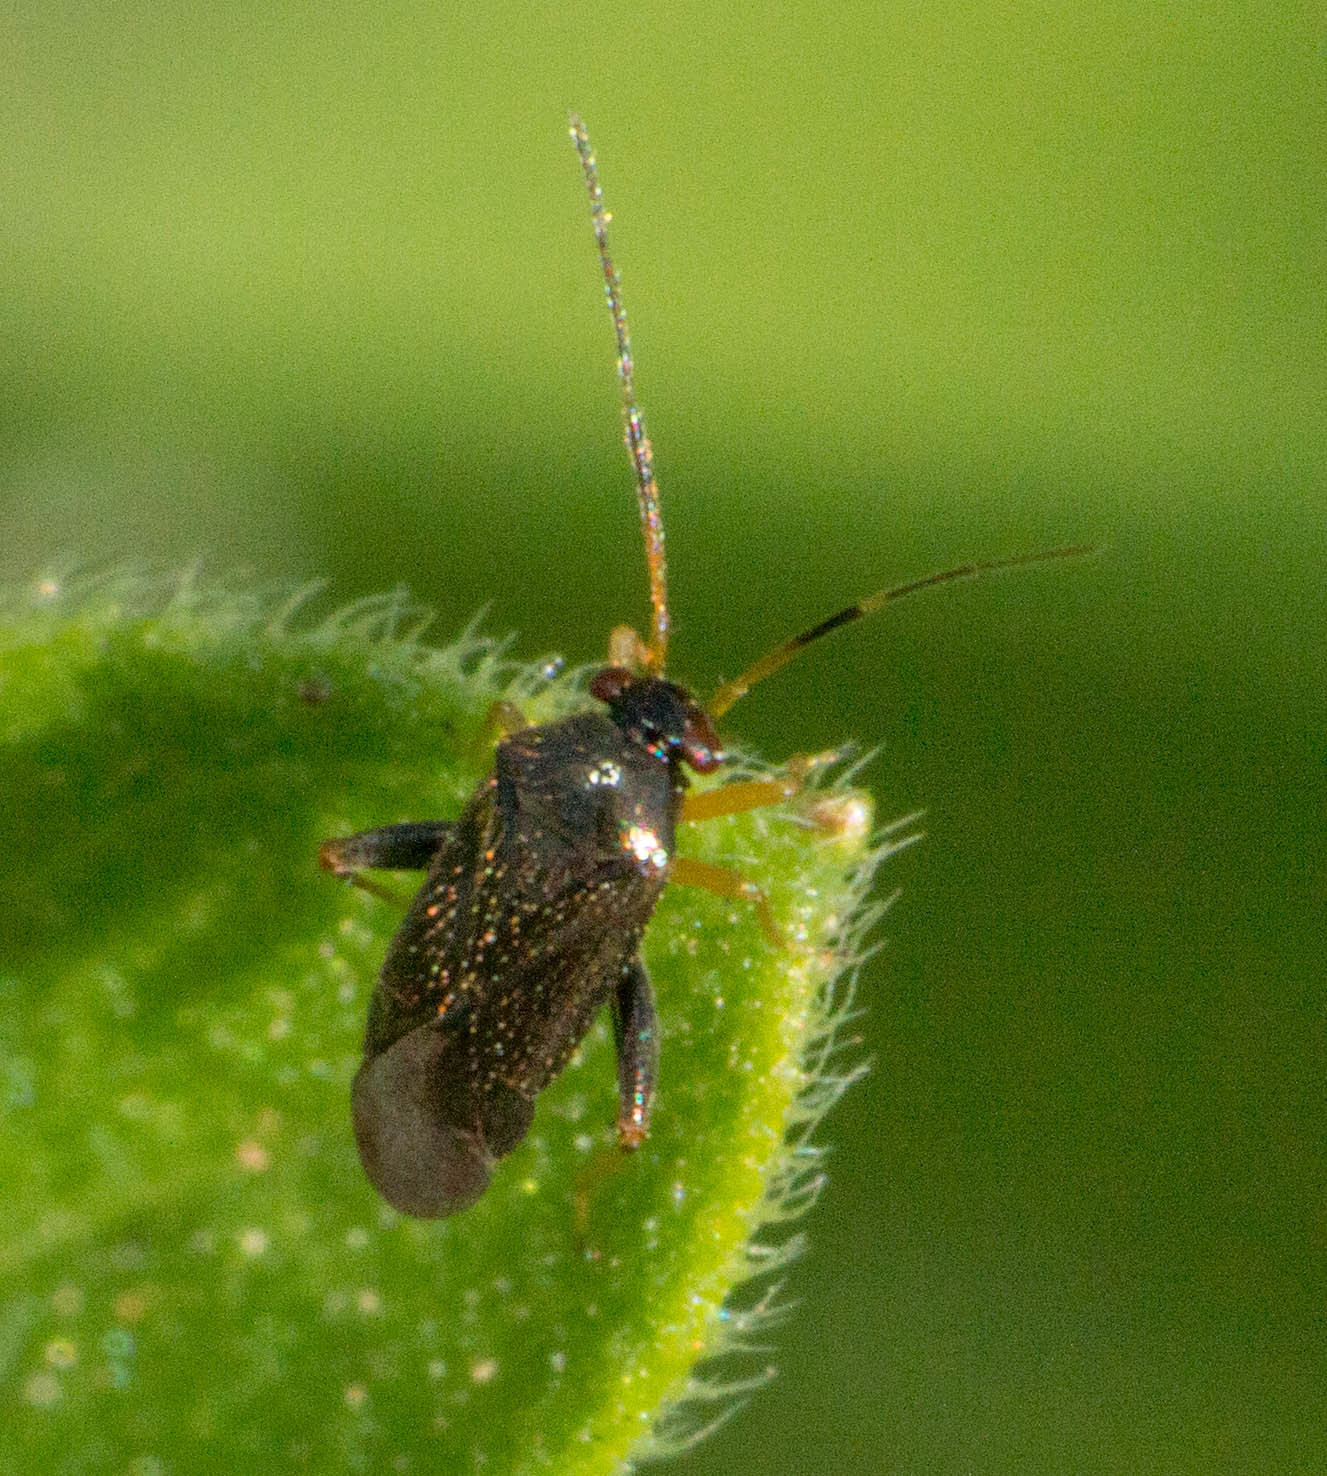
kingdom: Animalia
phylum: Arthropoda
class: Insecta
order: Hemiptera
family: Miridae
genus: Microtechnites
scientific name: Microtechnites spegazzinii
